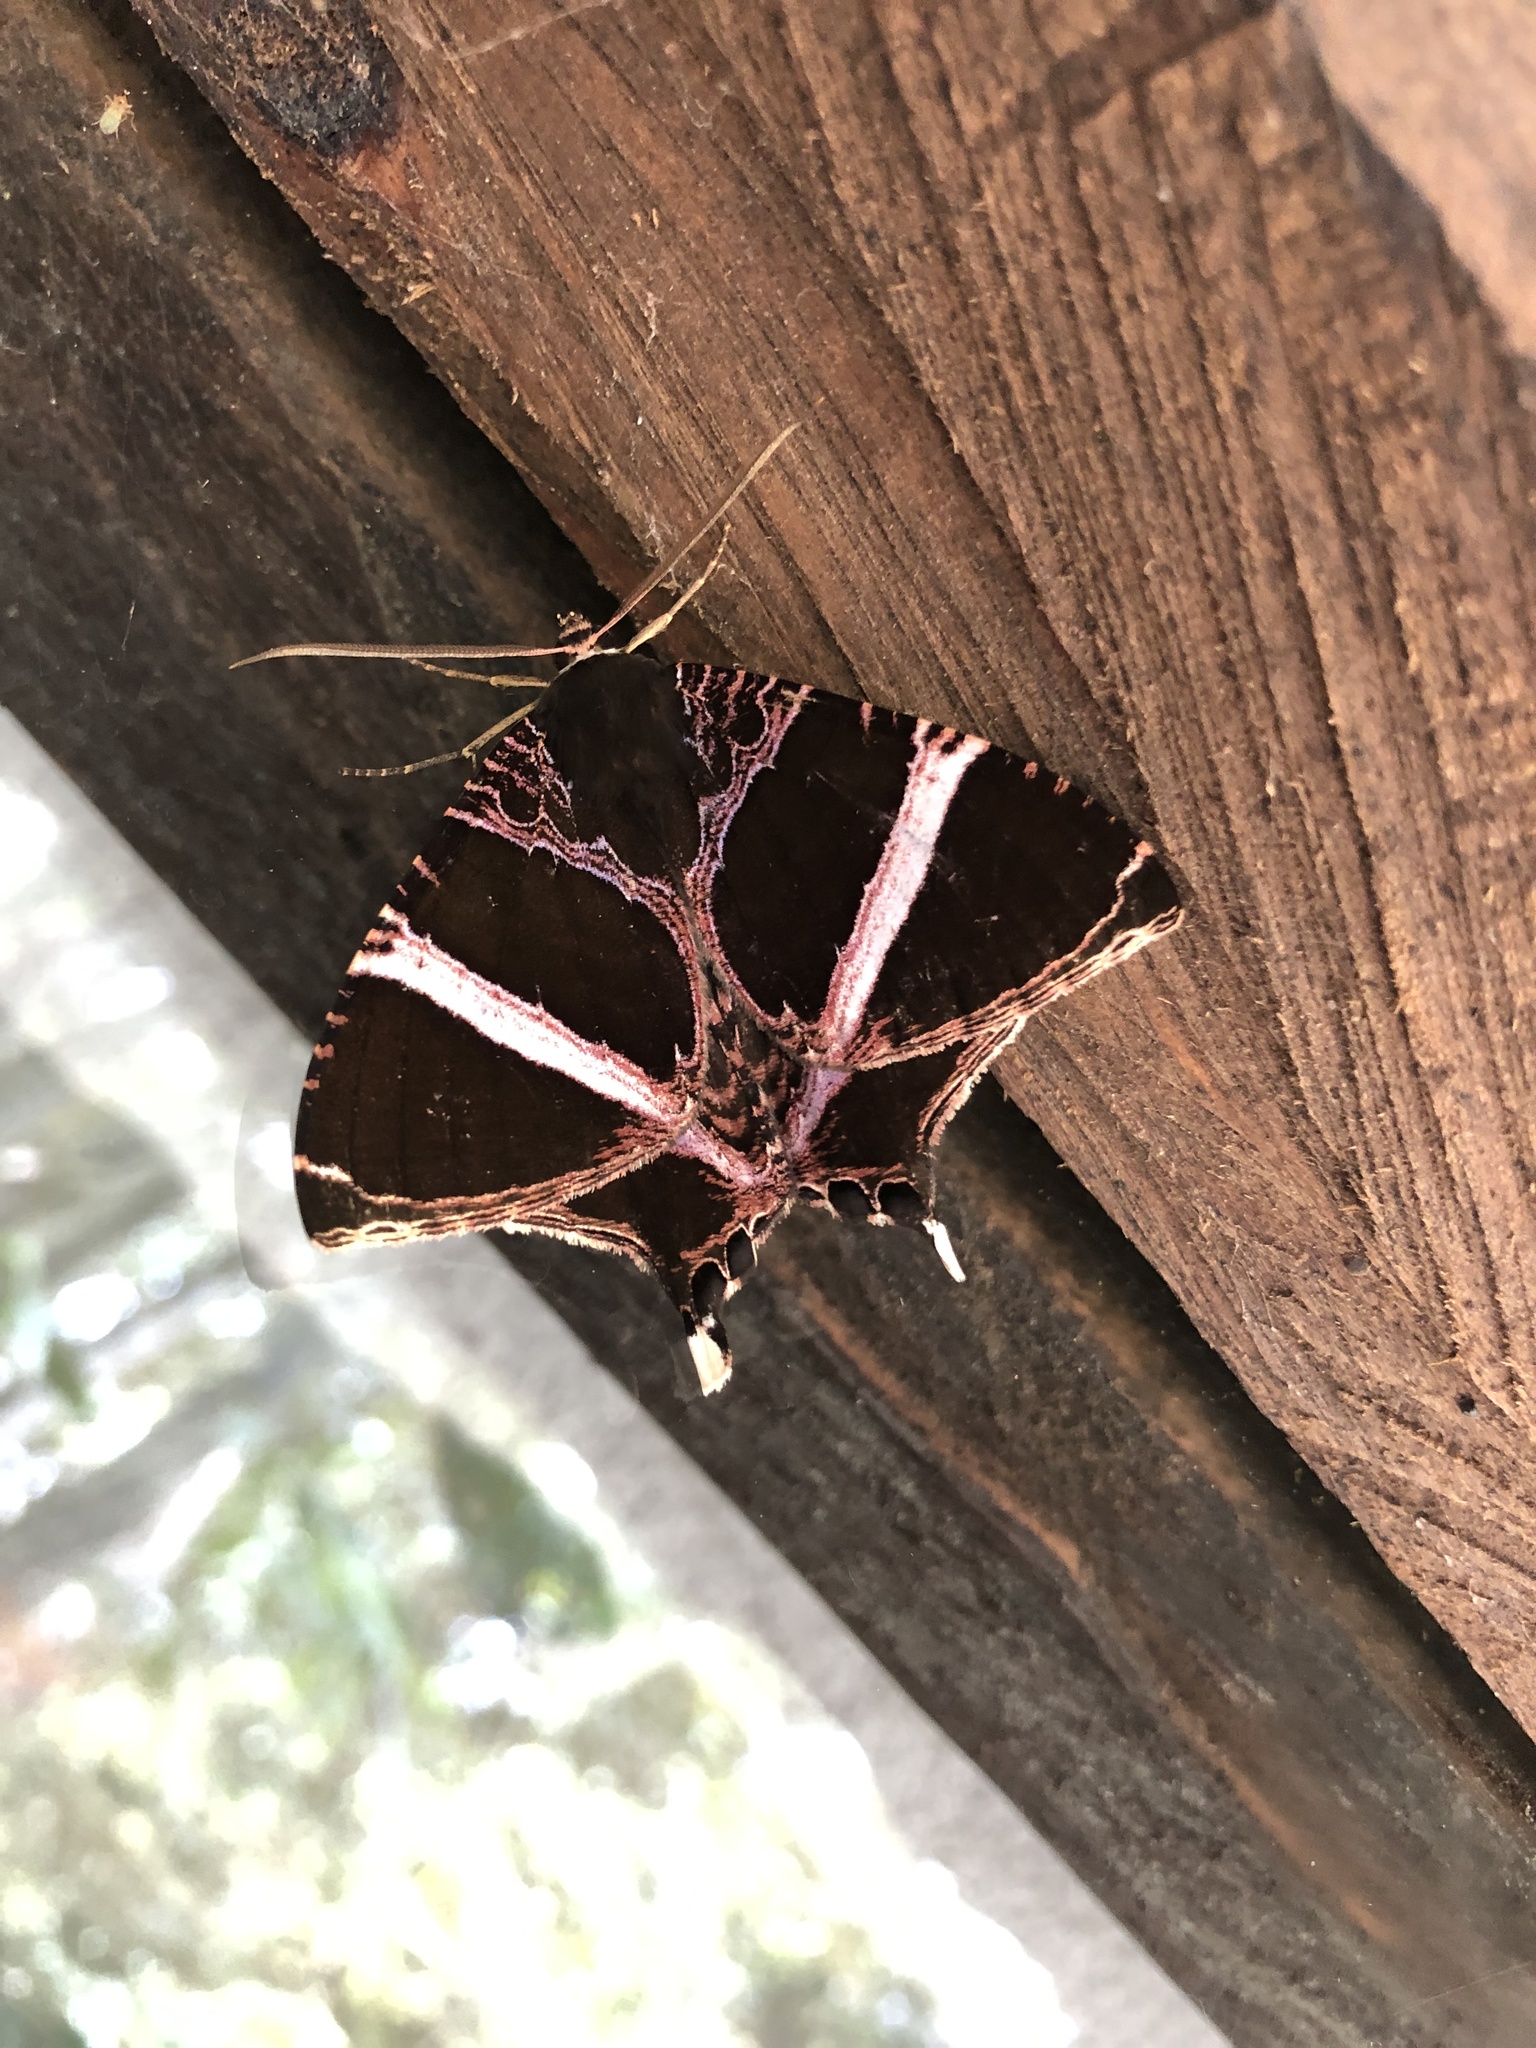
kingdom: Animalia
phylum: Arthropoda
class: Insecta
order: Lepidoptera
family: Sematuridae
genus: Coronidia
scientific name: Coronidia orithea
